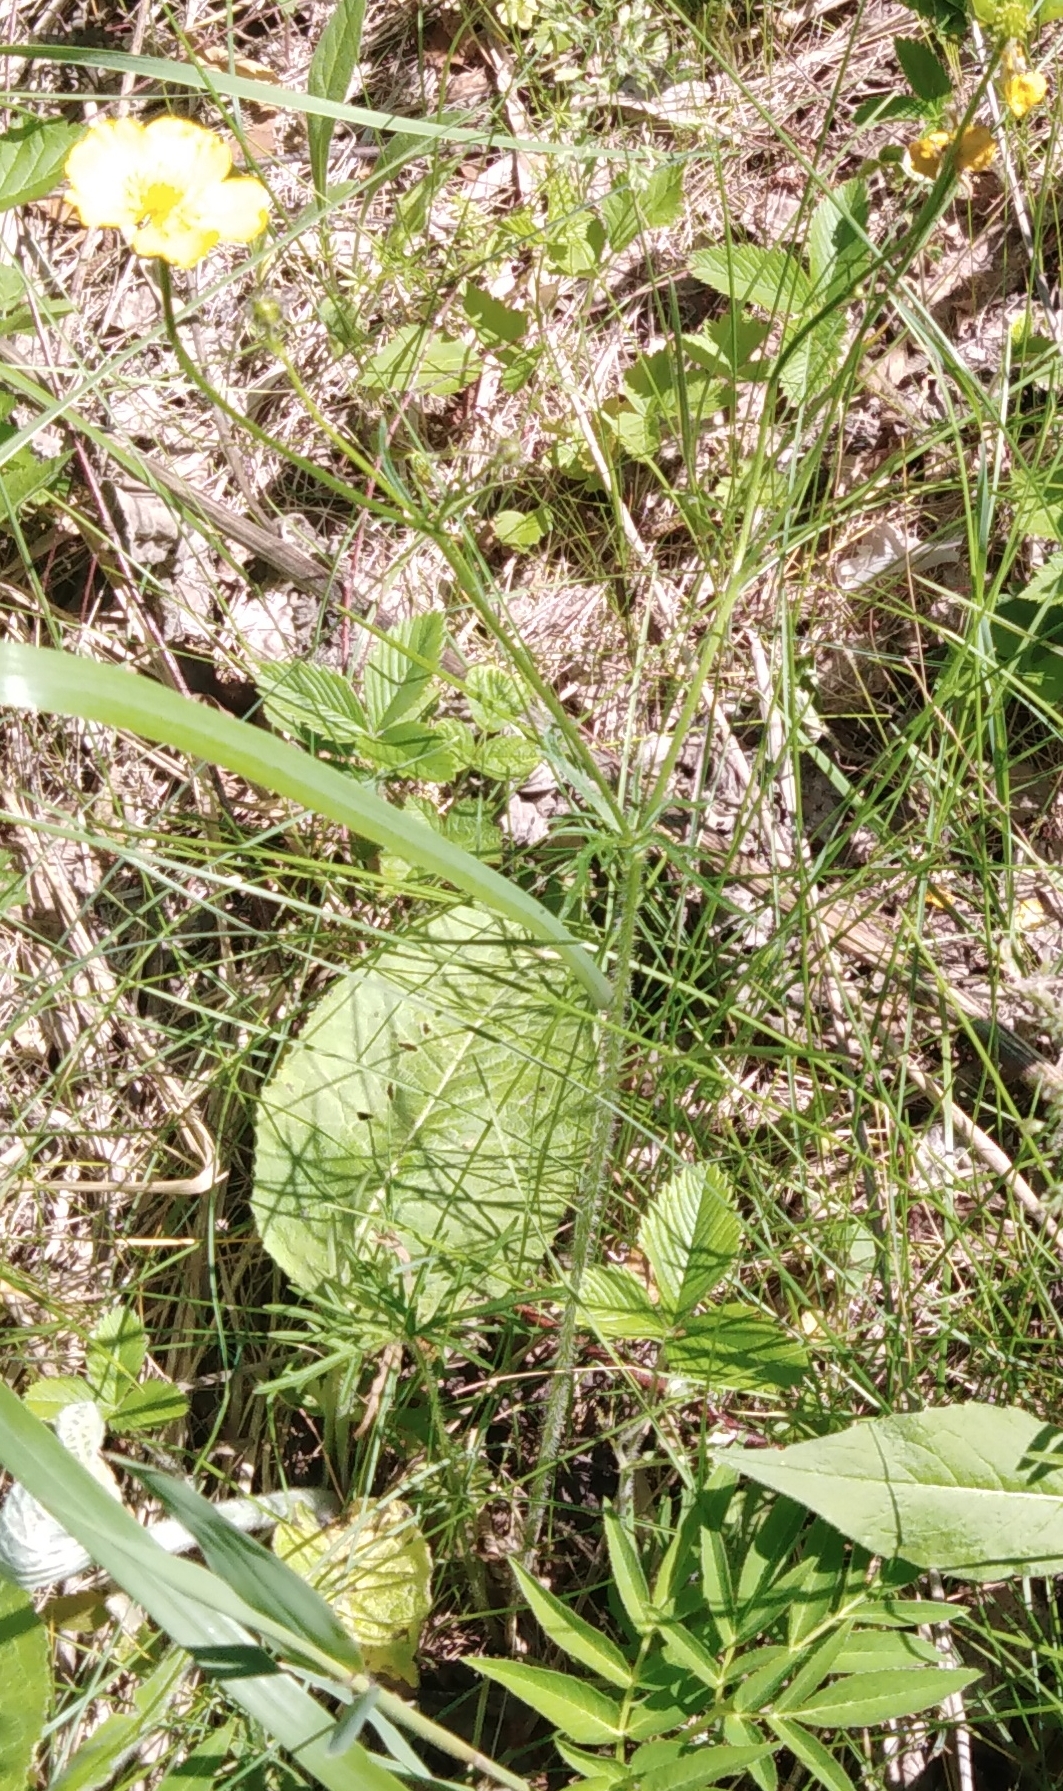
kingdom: Plantae
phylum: Tracheophyta
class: Magnoliopsida
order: Ranunculales
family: Ranunculaceae
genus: Ranunculus
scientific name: Ranunculus polyanthemos
